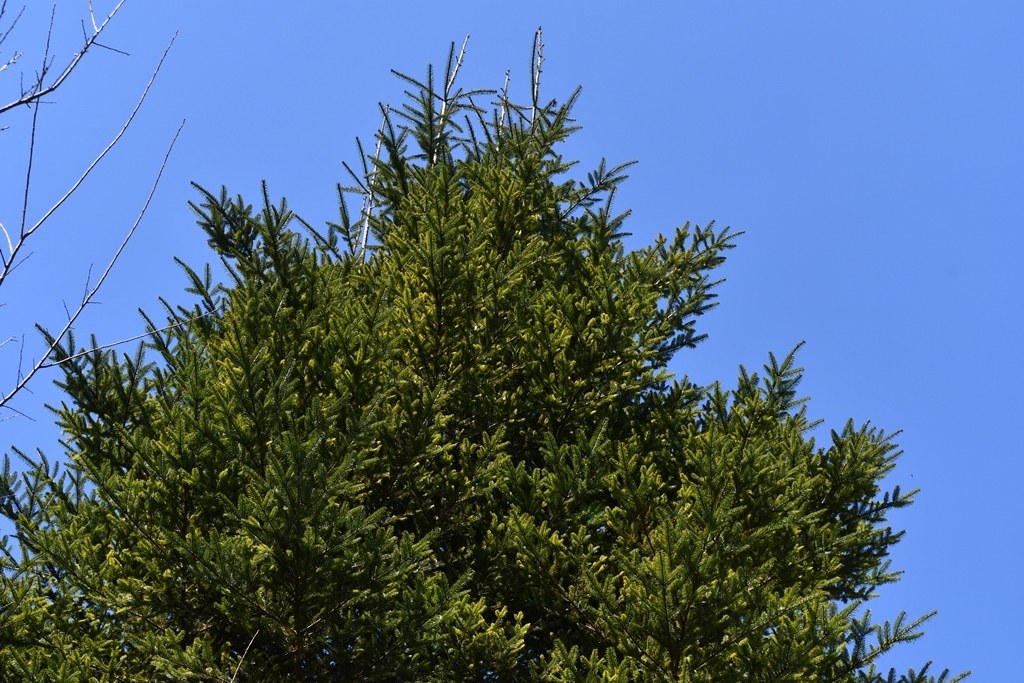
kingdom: Plantae
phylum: Tracheophyta
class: Pinopsida
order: Pinales
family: Pinaceae
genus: Abies
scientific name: Abies guatemalensis
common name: Guatemalan fir
